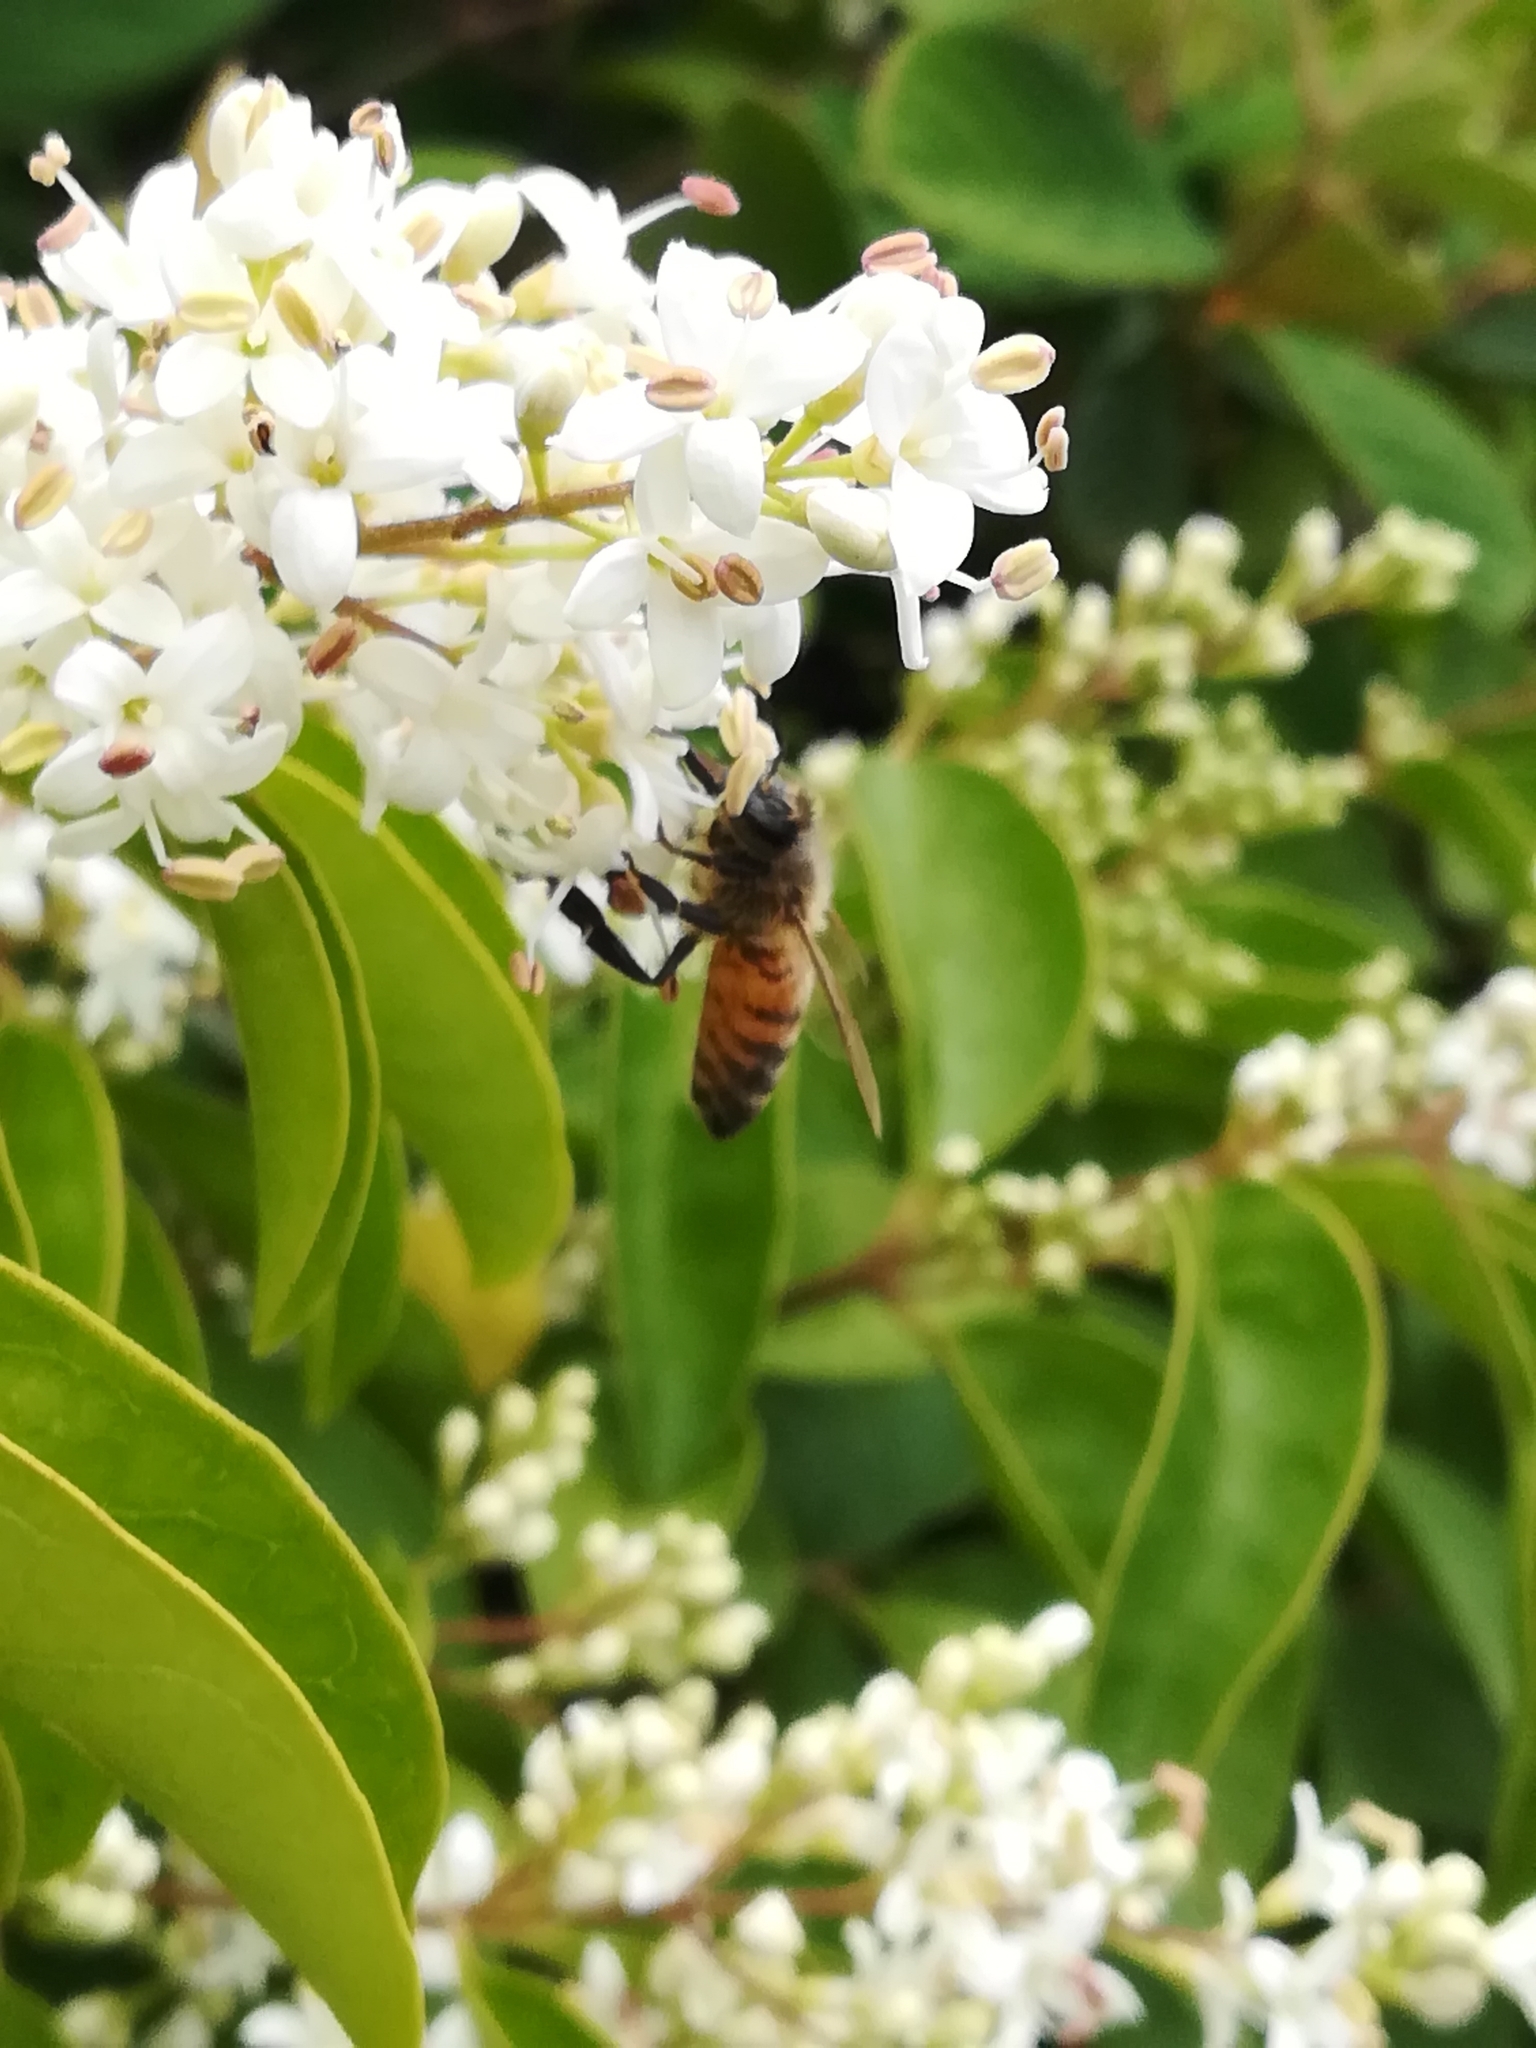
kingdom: Animalia
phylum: Arthropoda
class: Insecta
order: Hymenoptera
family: Apidae
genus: Apis
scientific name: Apis mellifera
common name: Honey bee
